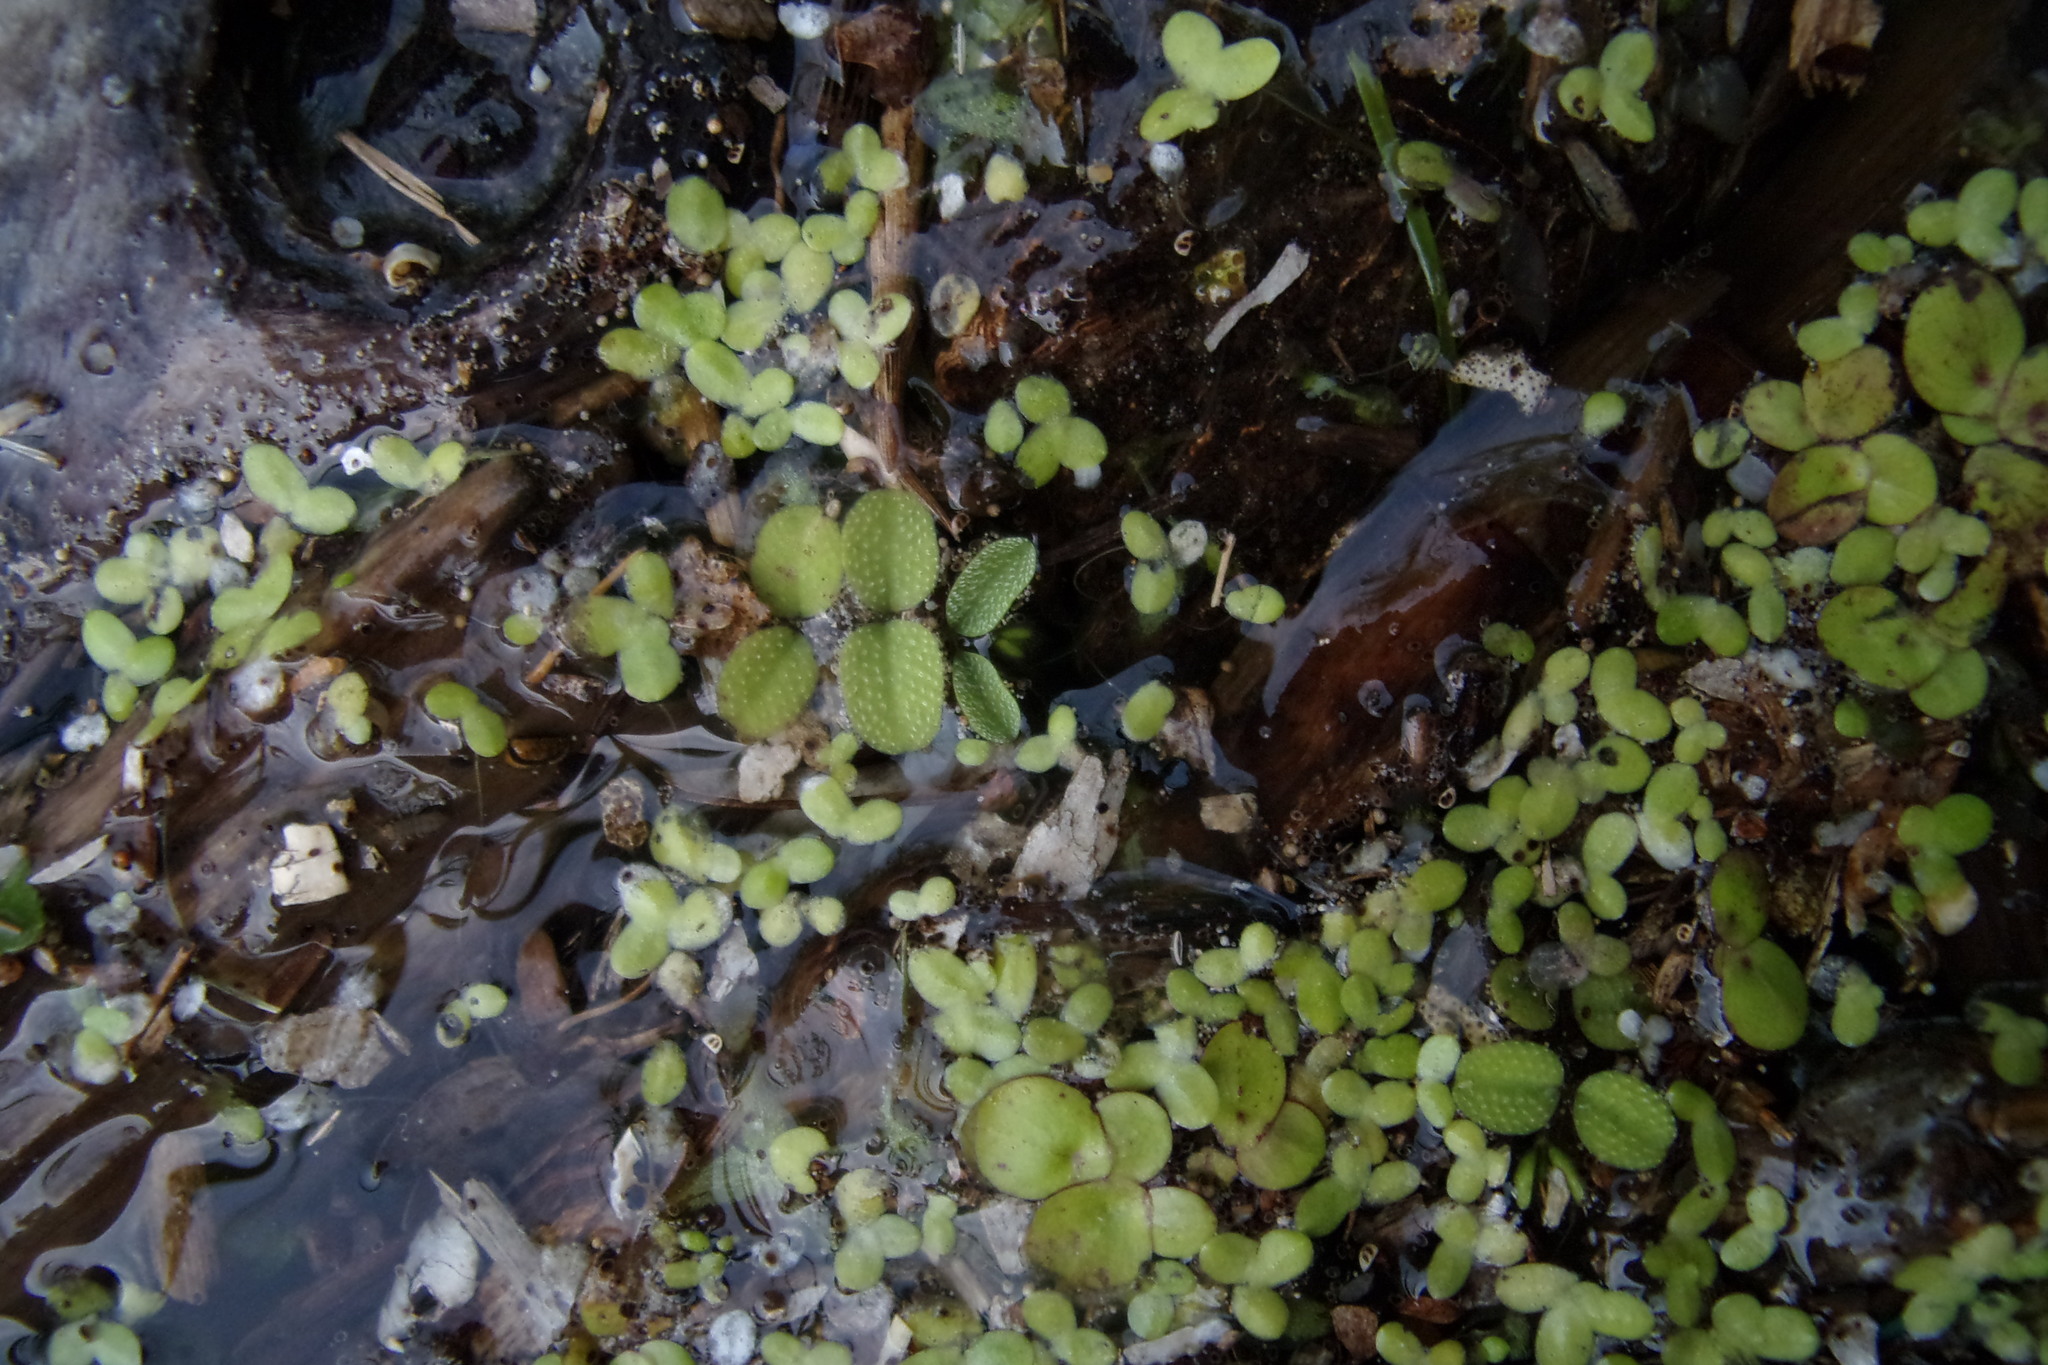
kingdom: Plantae
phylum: Tracheophyta
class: Polypodiopsida
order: Salviniales
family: Salviniaceae
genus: Salvinia
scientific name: Salvinia natans
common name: Floating fern
